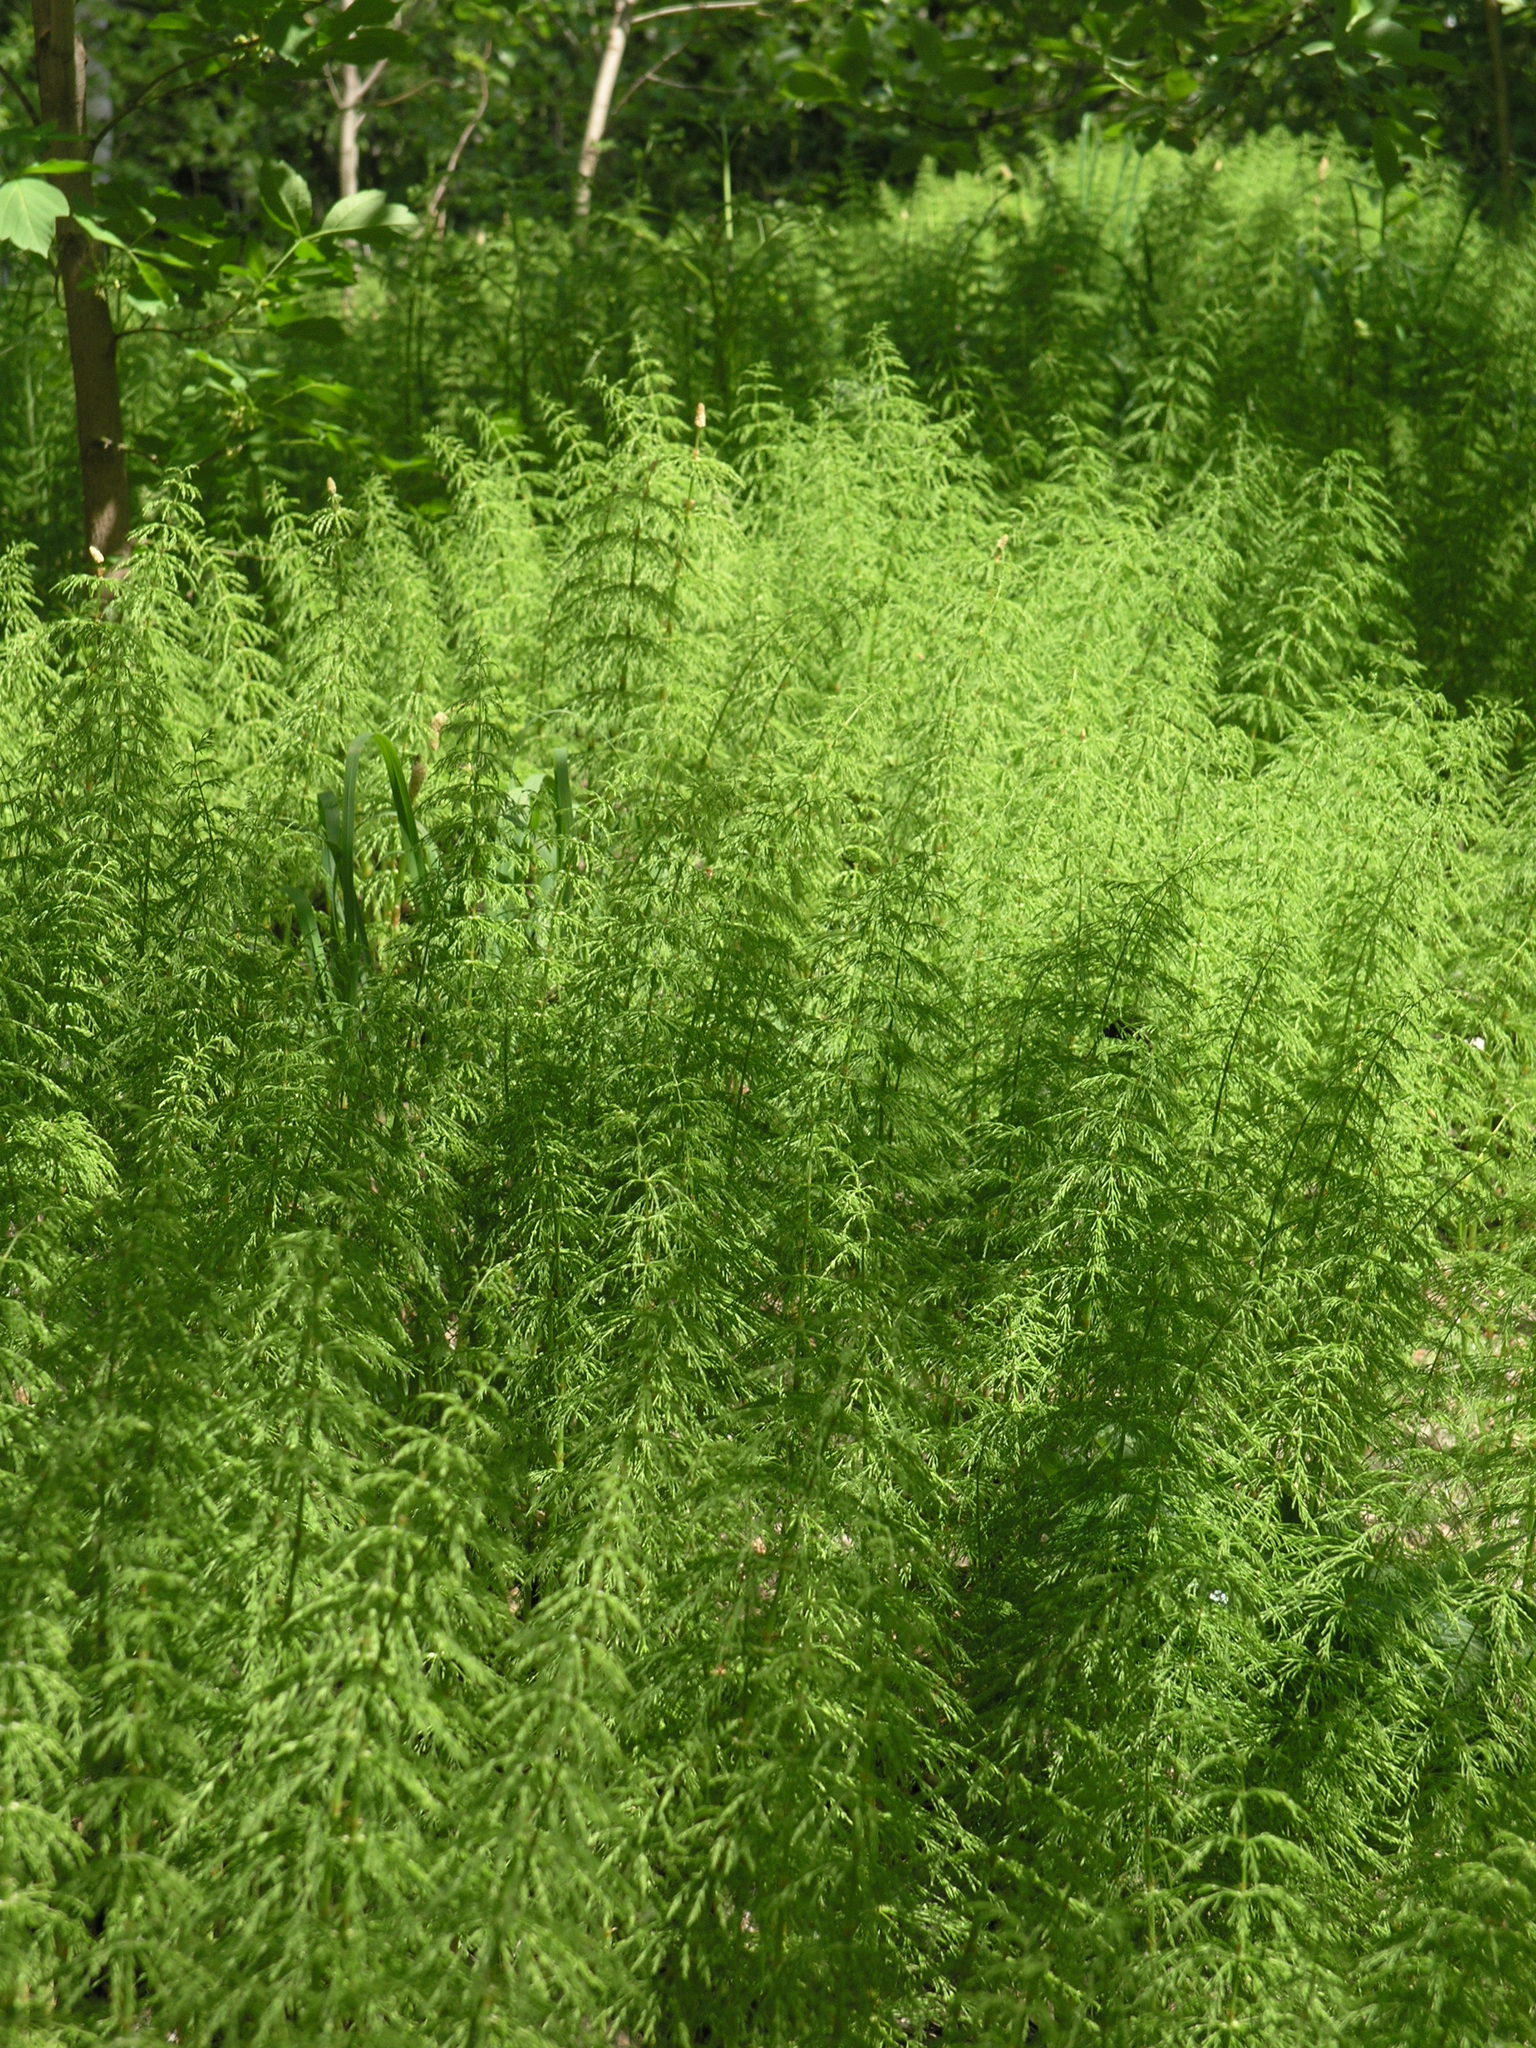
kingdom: Plantae
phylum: Tracheophyta
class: Polypodiopsida
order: Equisetales
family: Equisetaceae
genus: Equisetum
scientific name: Equisetum sylvaticum
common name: Wood horsetail
